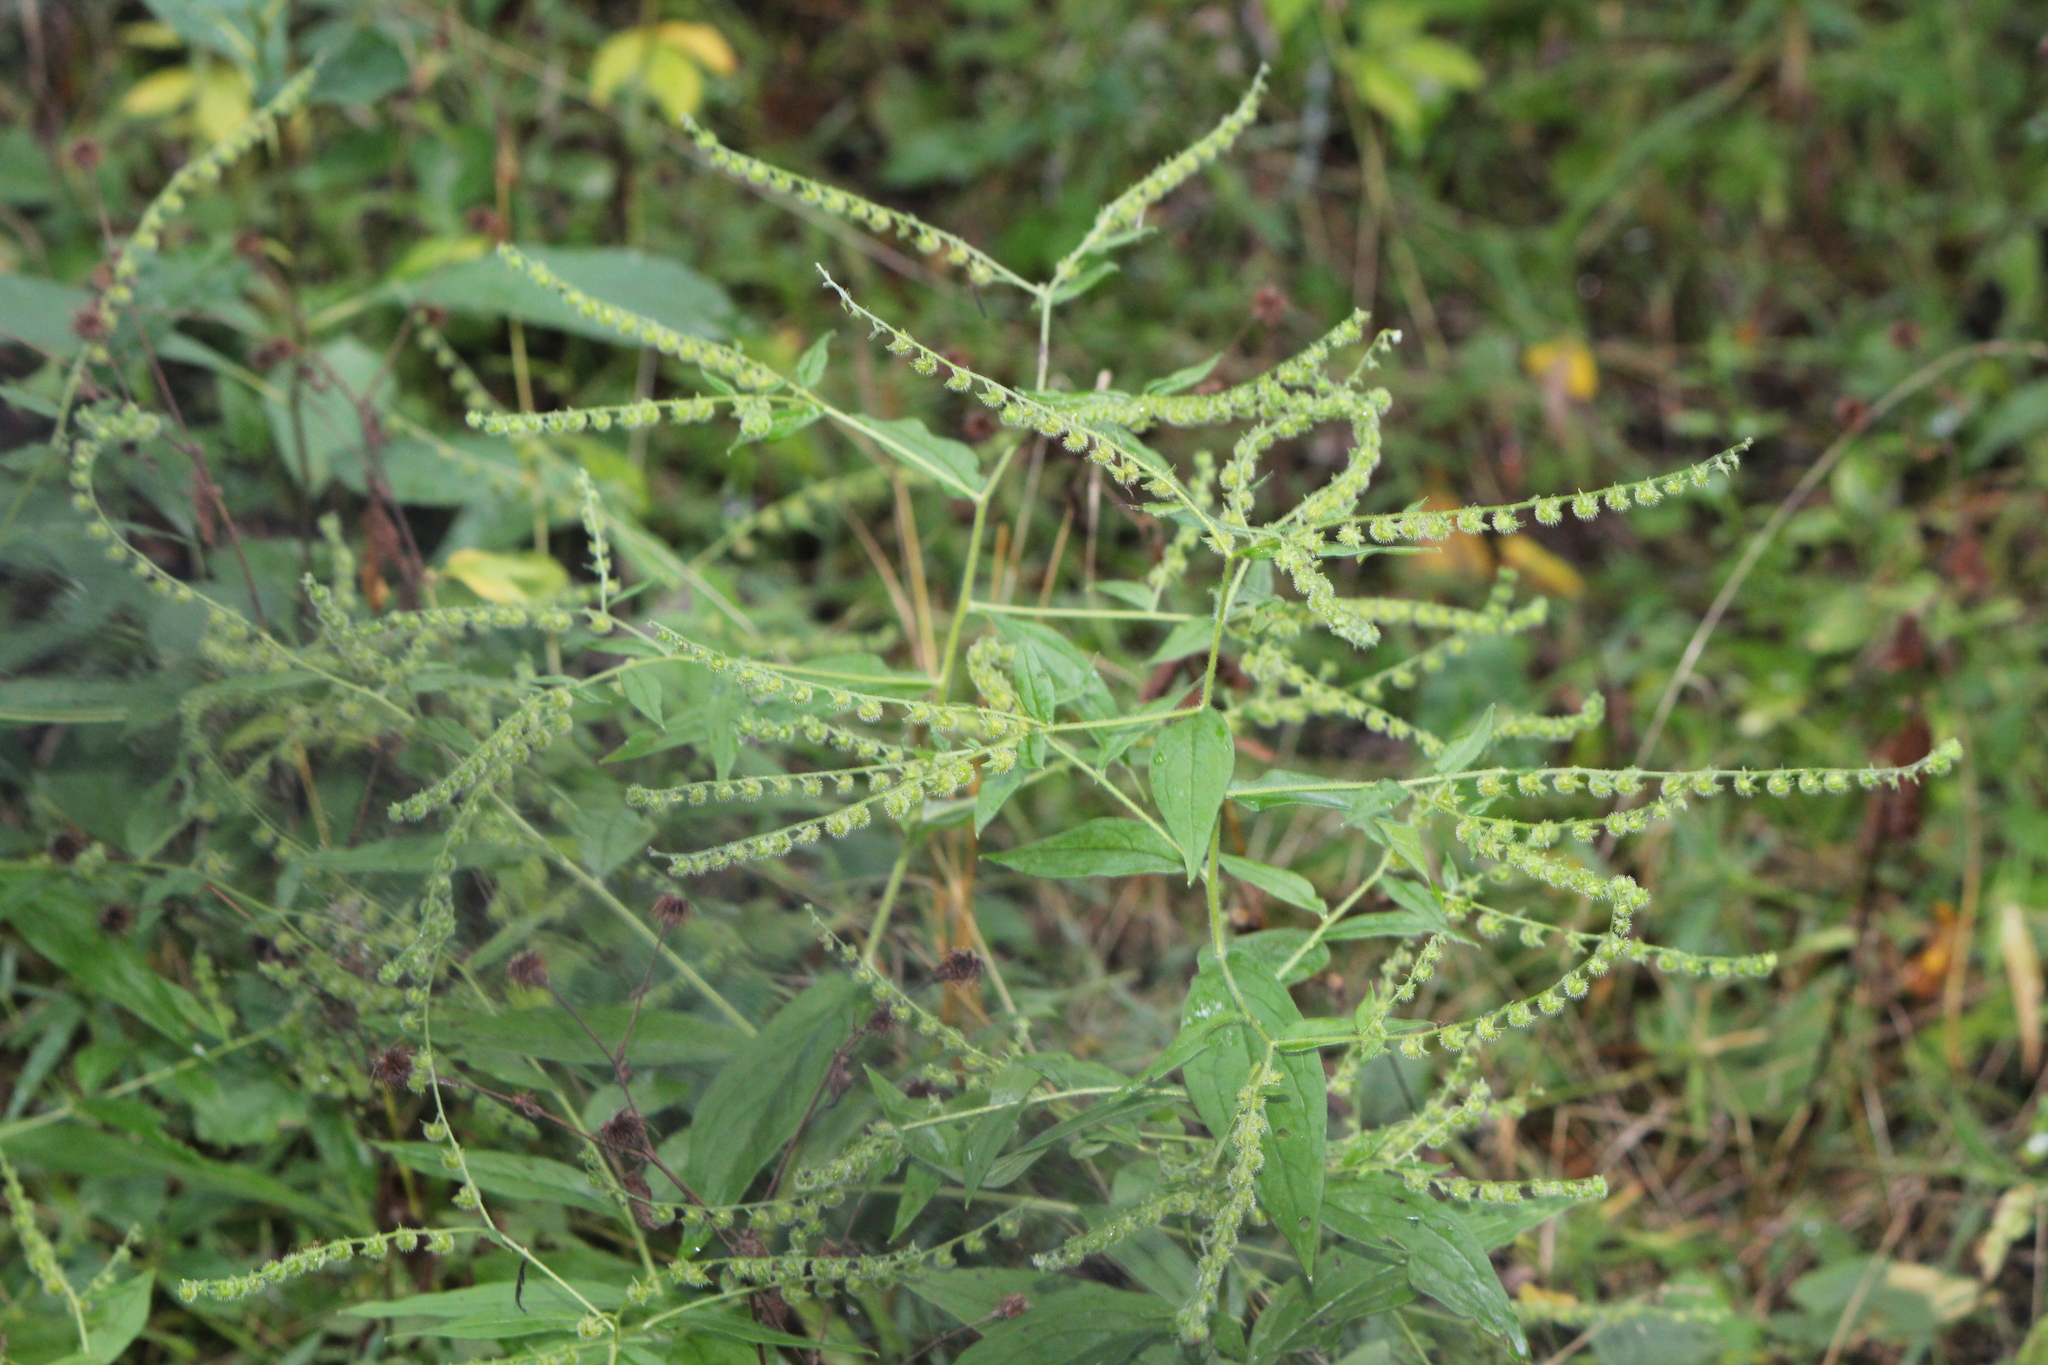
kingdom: Plantae
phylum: Tracheophyta
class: Magnoliopsida
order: Boraginales
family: Boraginaceae
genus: Hackelia
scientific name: Hackelia virginiana
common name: Beggar's-lice
